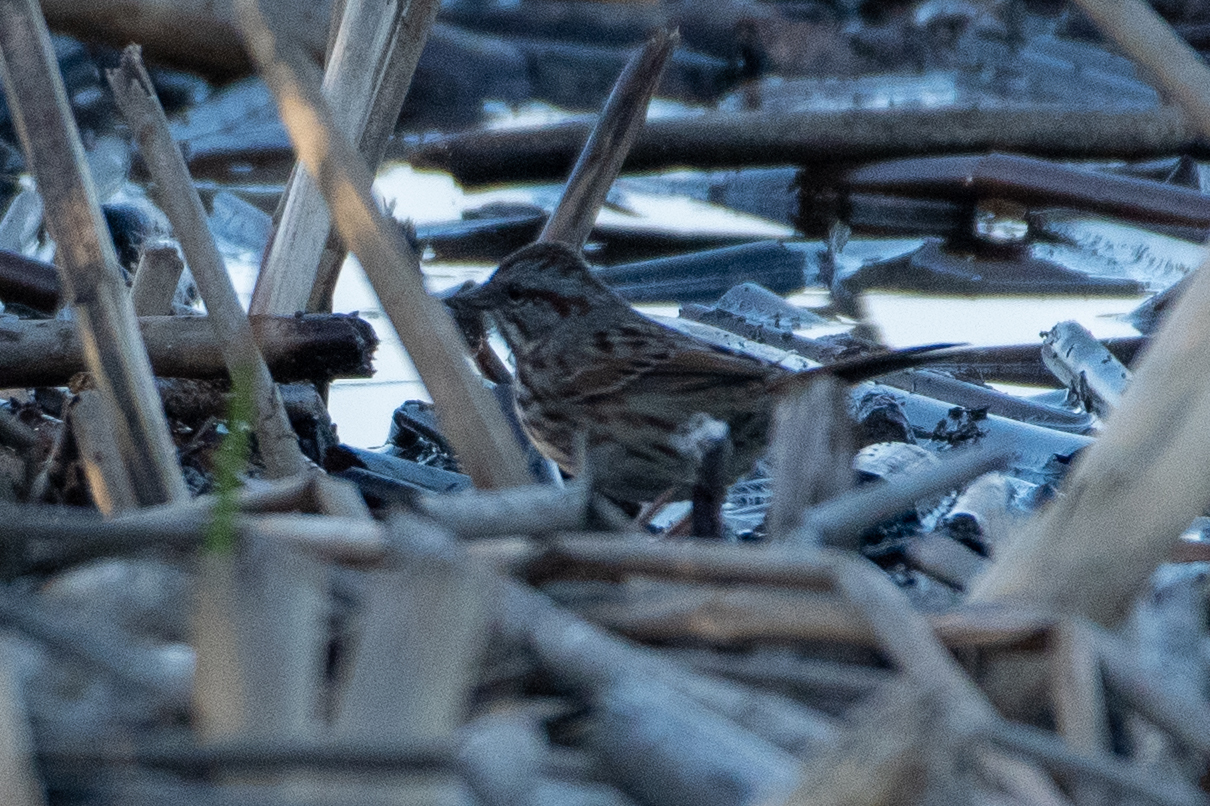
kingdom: Animalia
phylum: Chordata
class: Aves
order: Passeriformes
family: Passerellidae
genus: Melospiza
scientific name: Melospiza melodia
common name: Song sparrow
